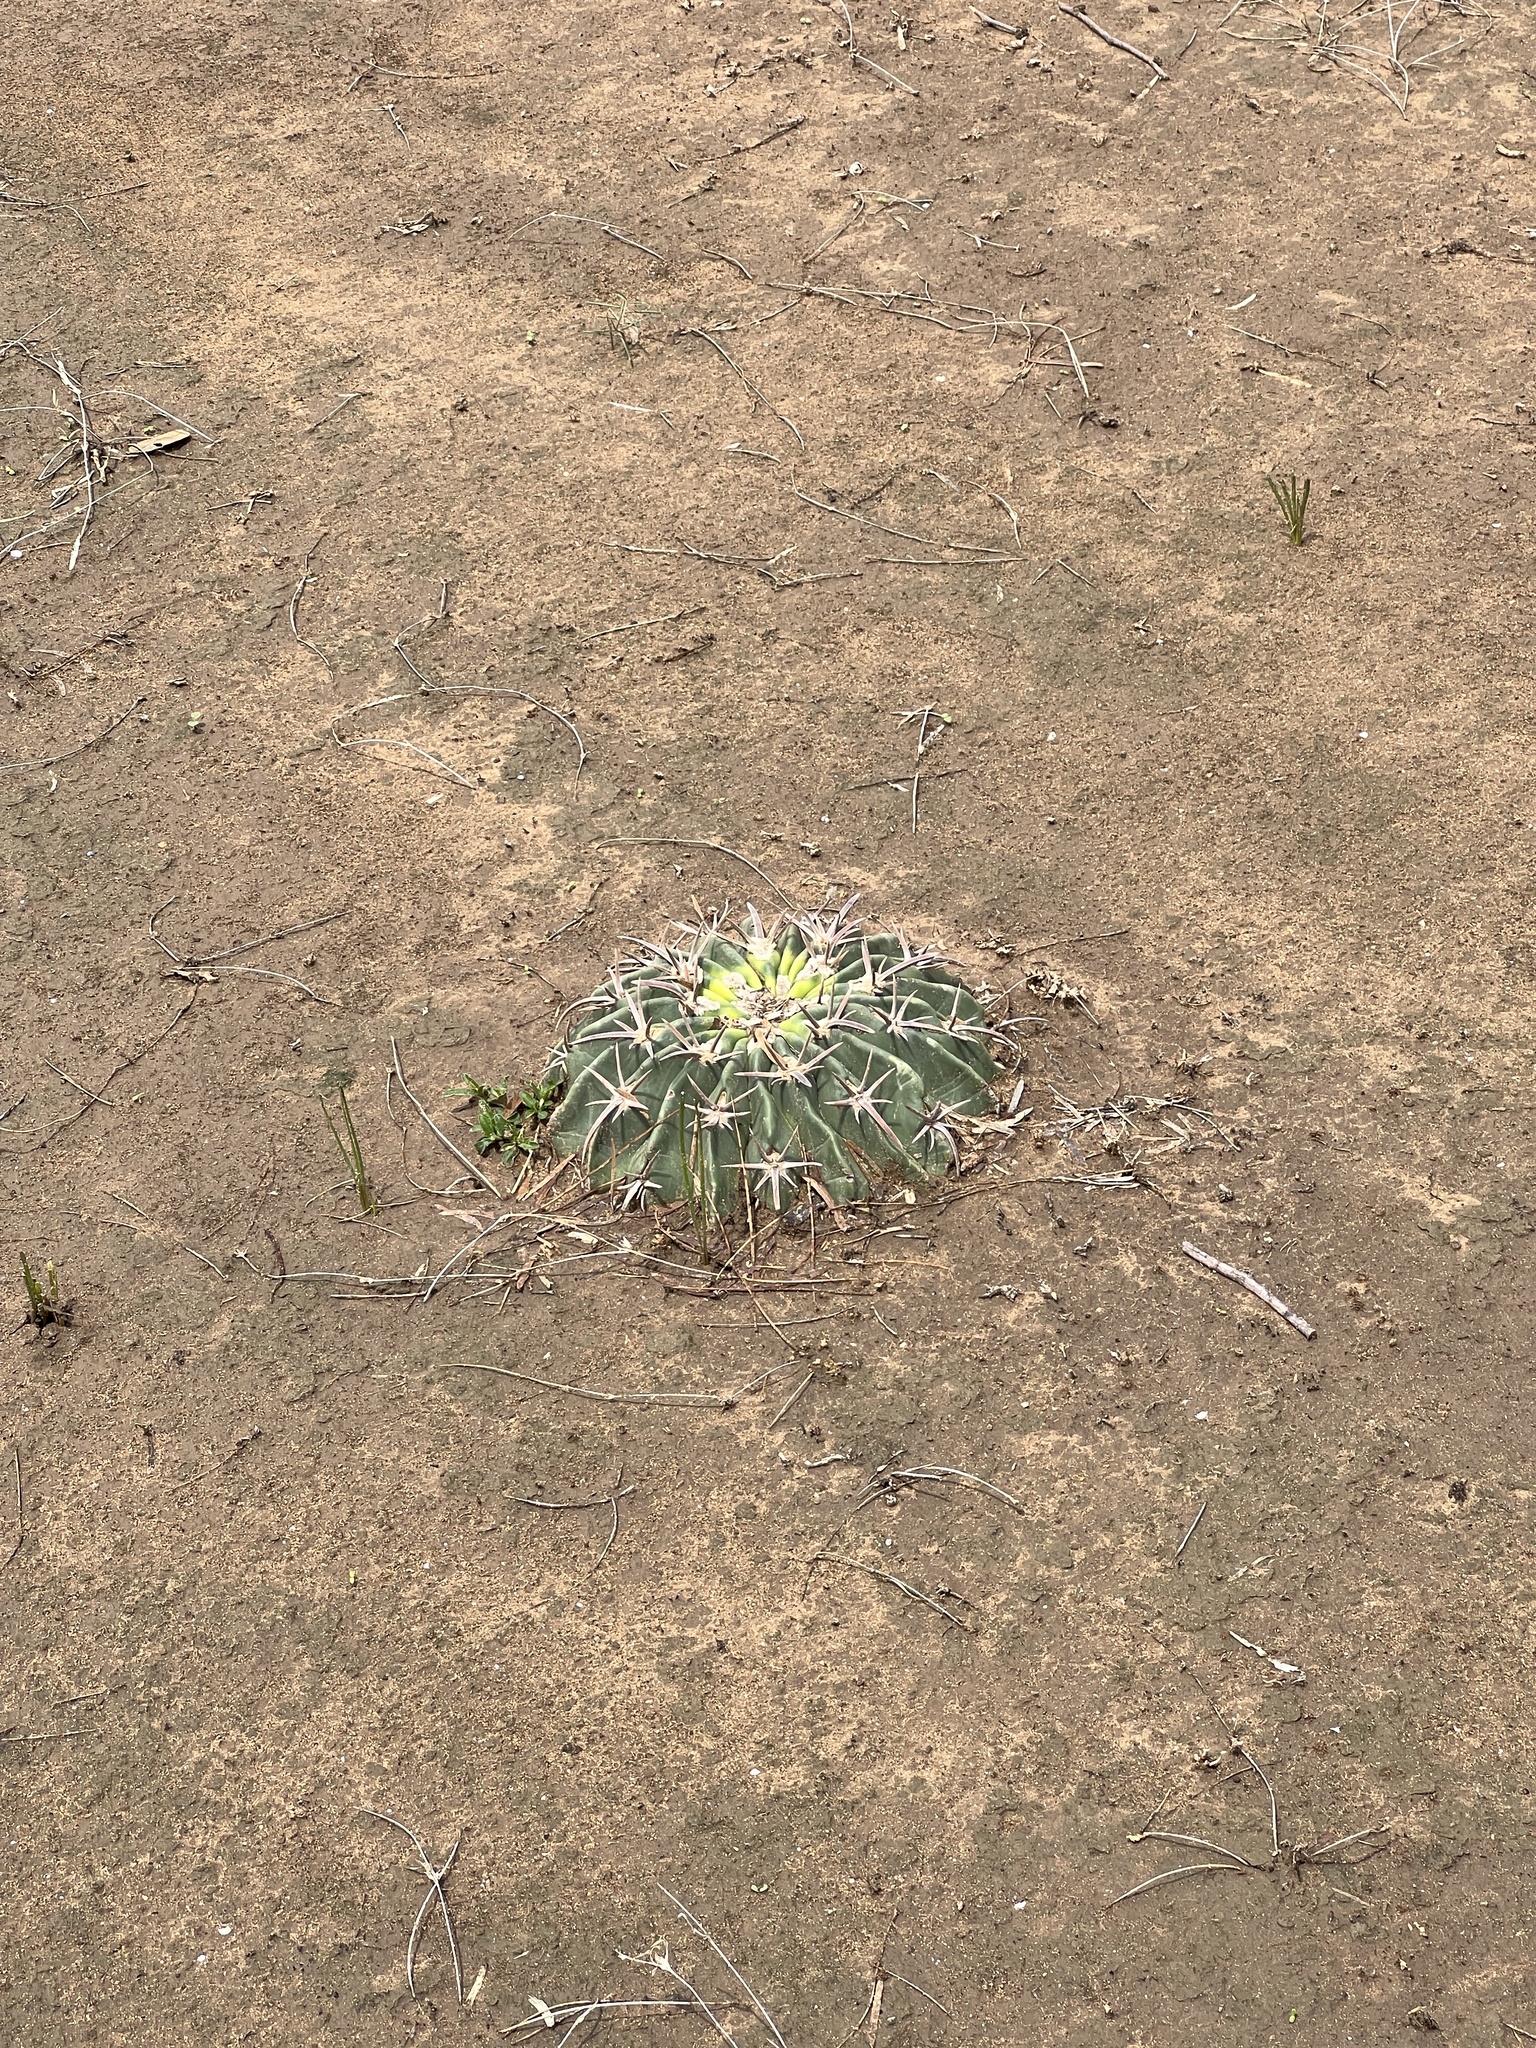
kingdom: Plantae
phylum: Tracheophyta
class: Magnoliopsida
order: Caryophyllales
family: Cactaceae
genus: Echinocactus
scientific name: Echinocactus texensis
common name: Devil's pincushion
